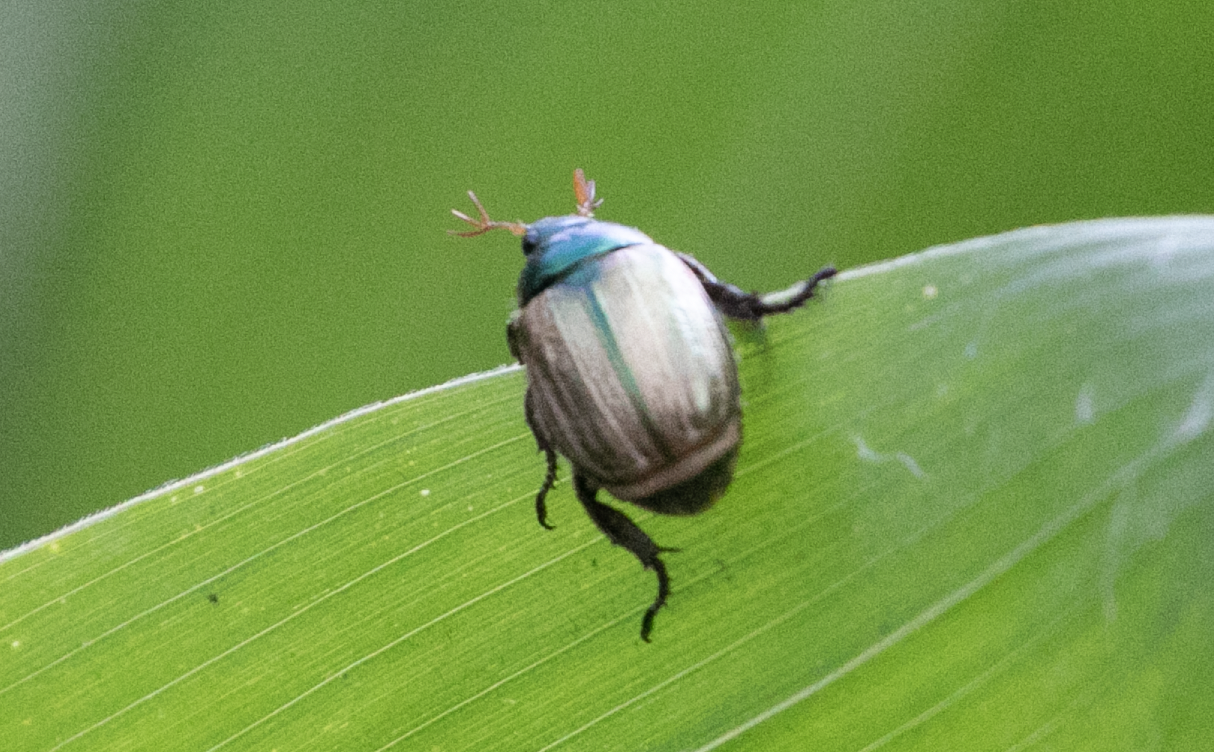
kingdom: Animalia
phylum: Arthropoda
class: Insecta
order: Coleoptera
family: Scarabaeidae
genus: Mimela
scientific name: Mimela junii
